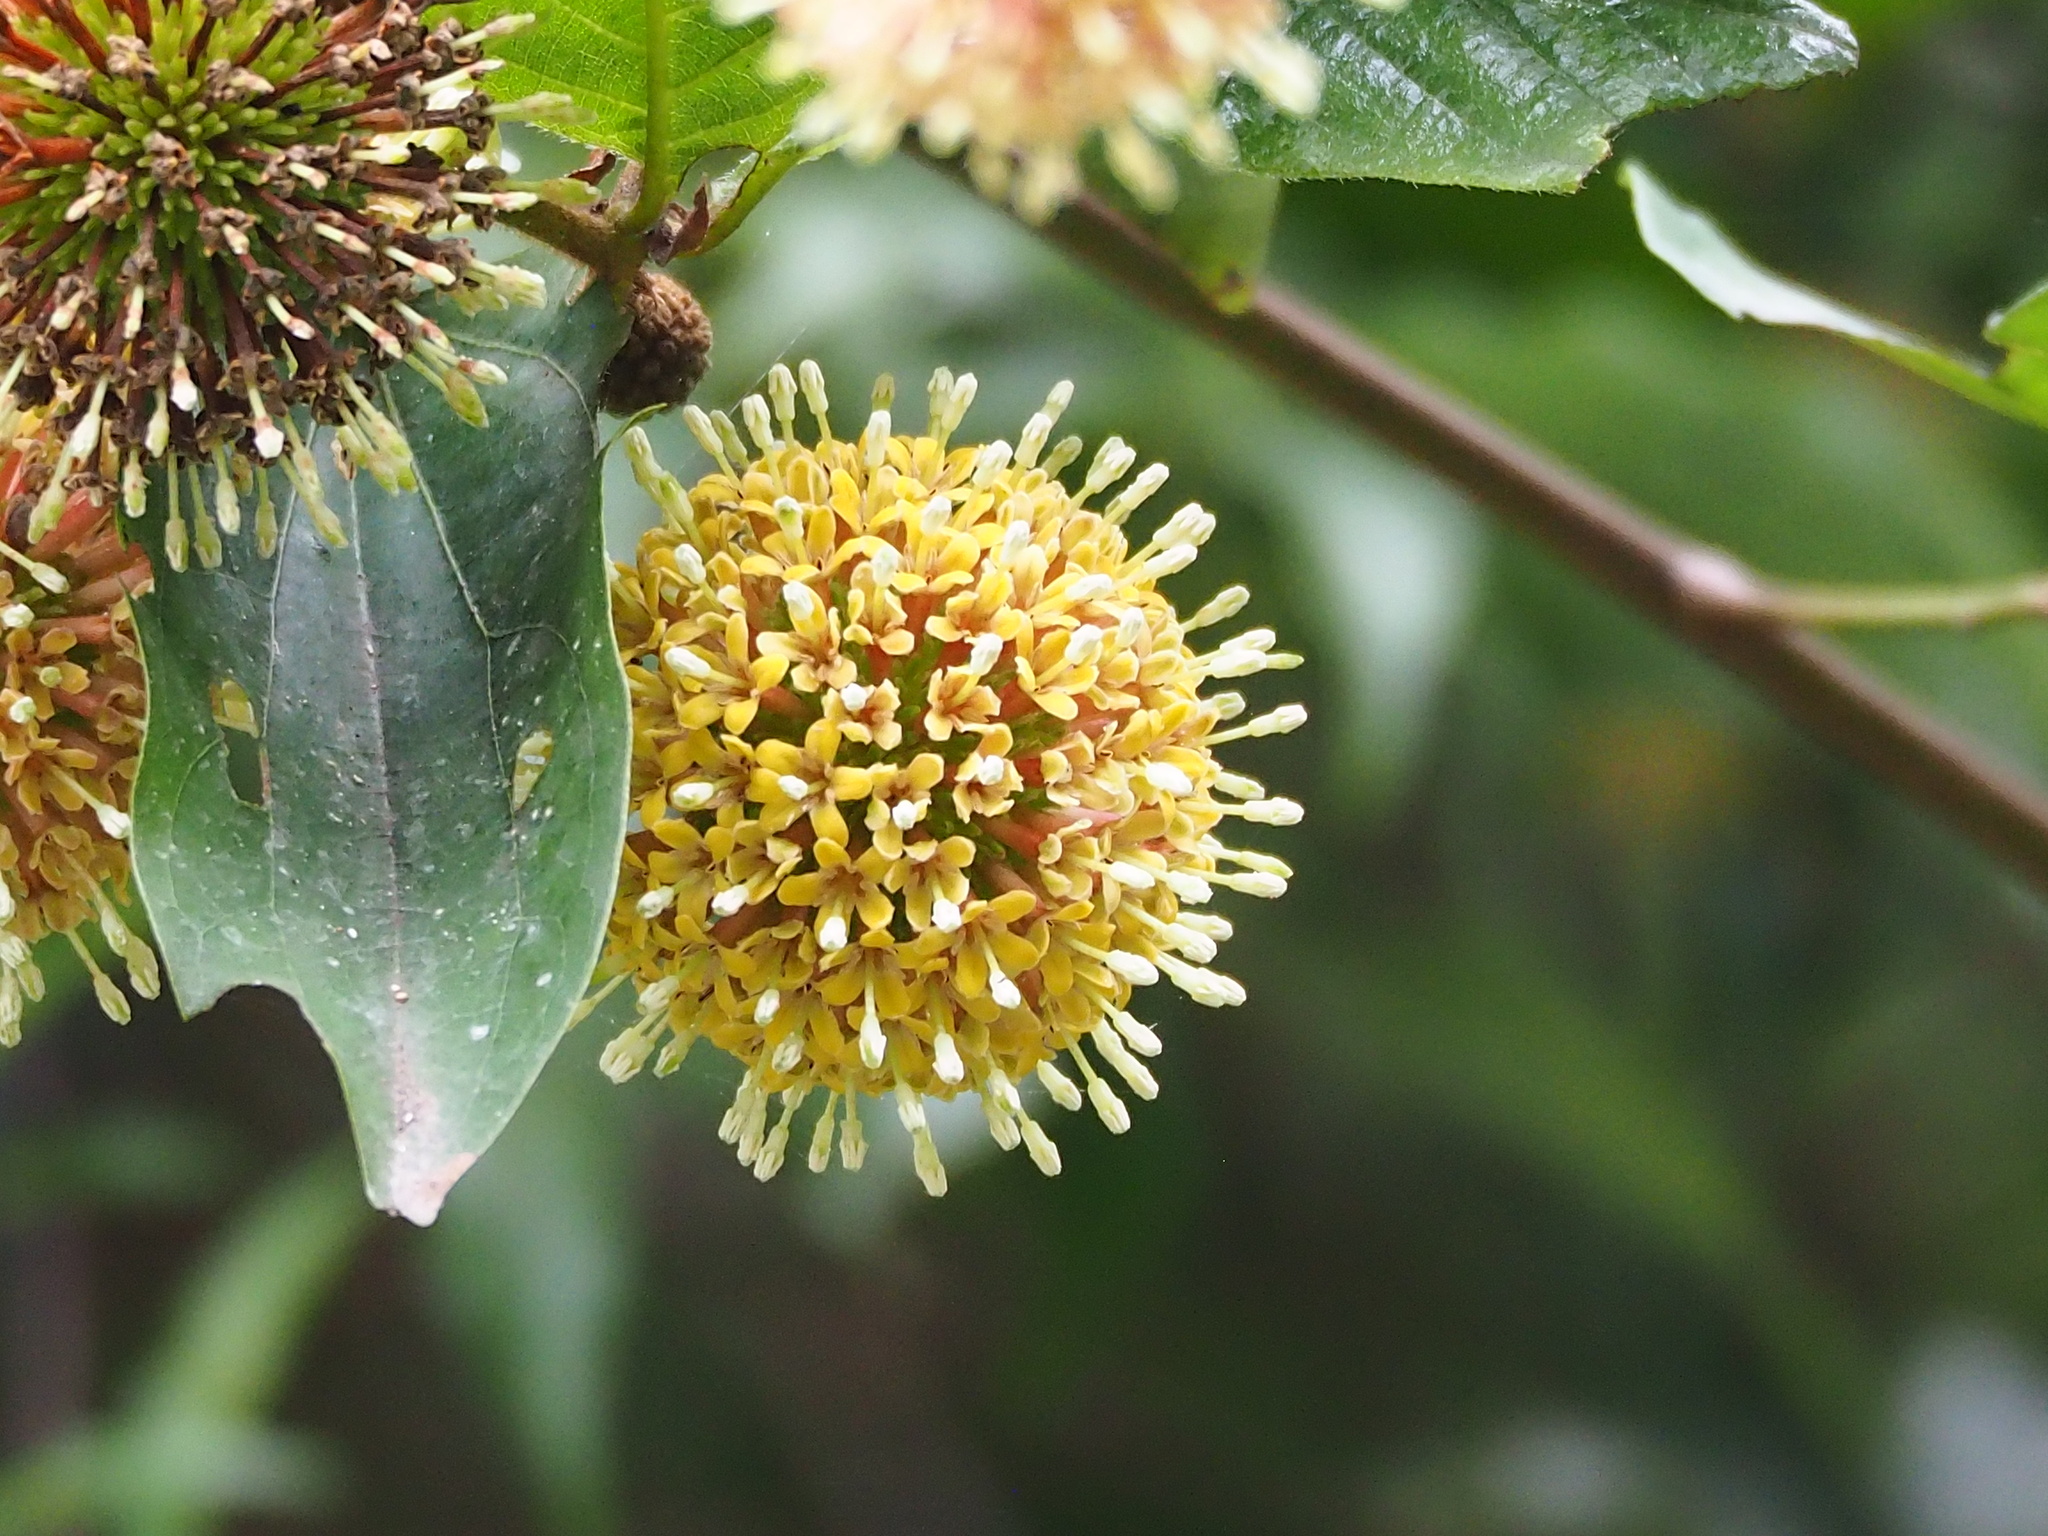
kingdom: Plantae
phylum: Tracheophyta
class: Magnoliopsida
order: Gentianales
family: Rubiaceae
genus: Uncaria
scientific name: Uncaria hirsuta
